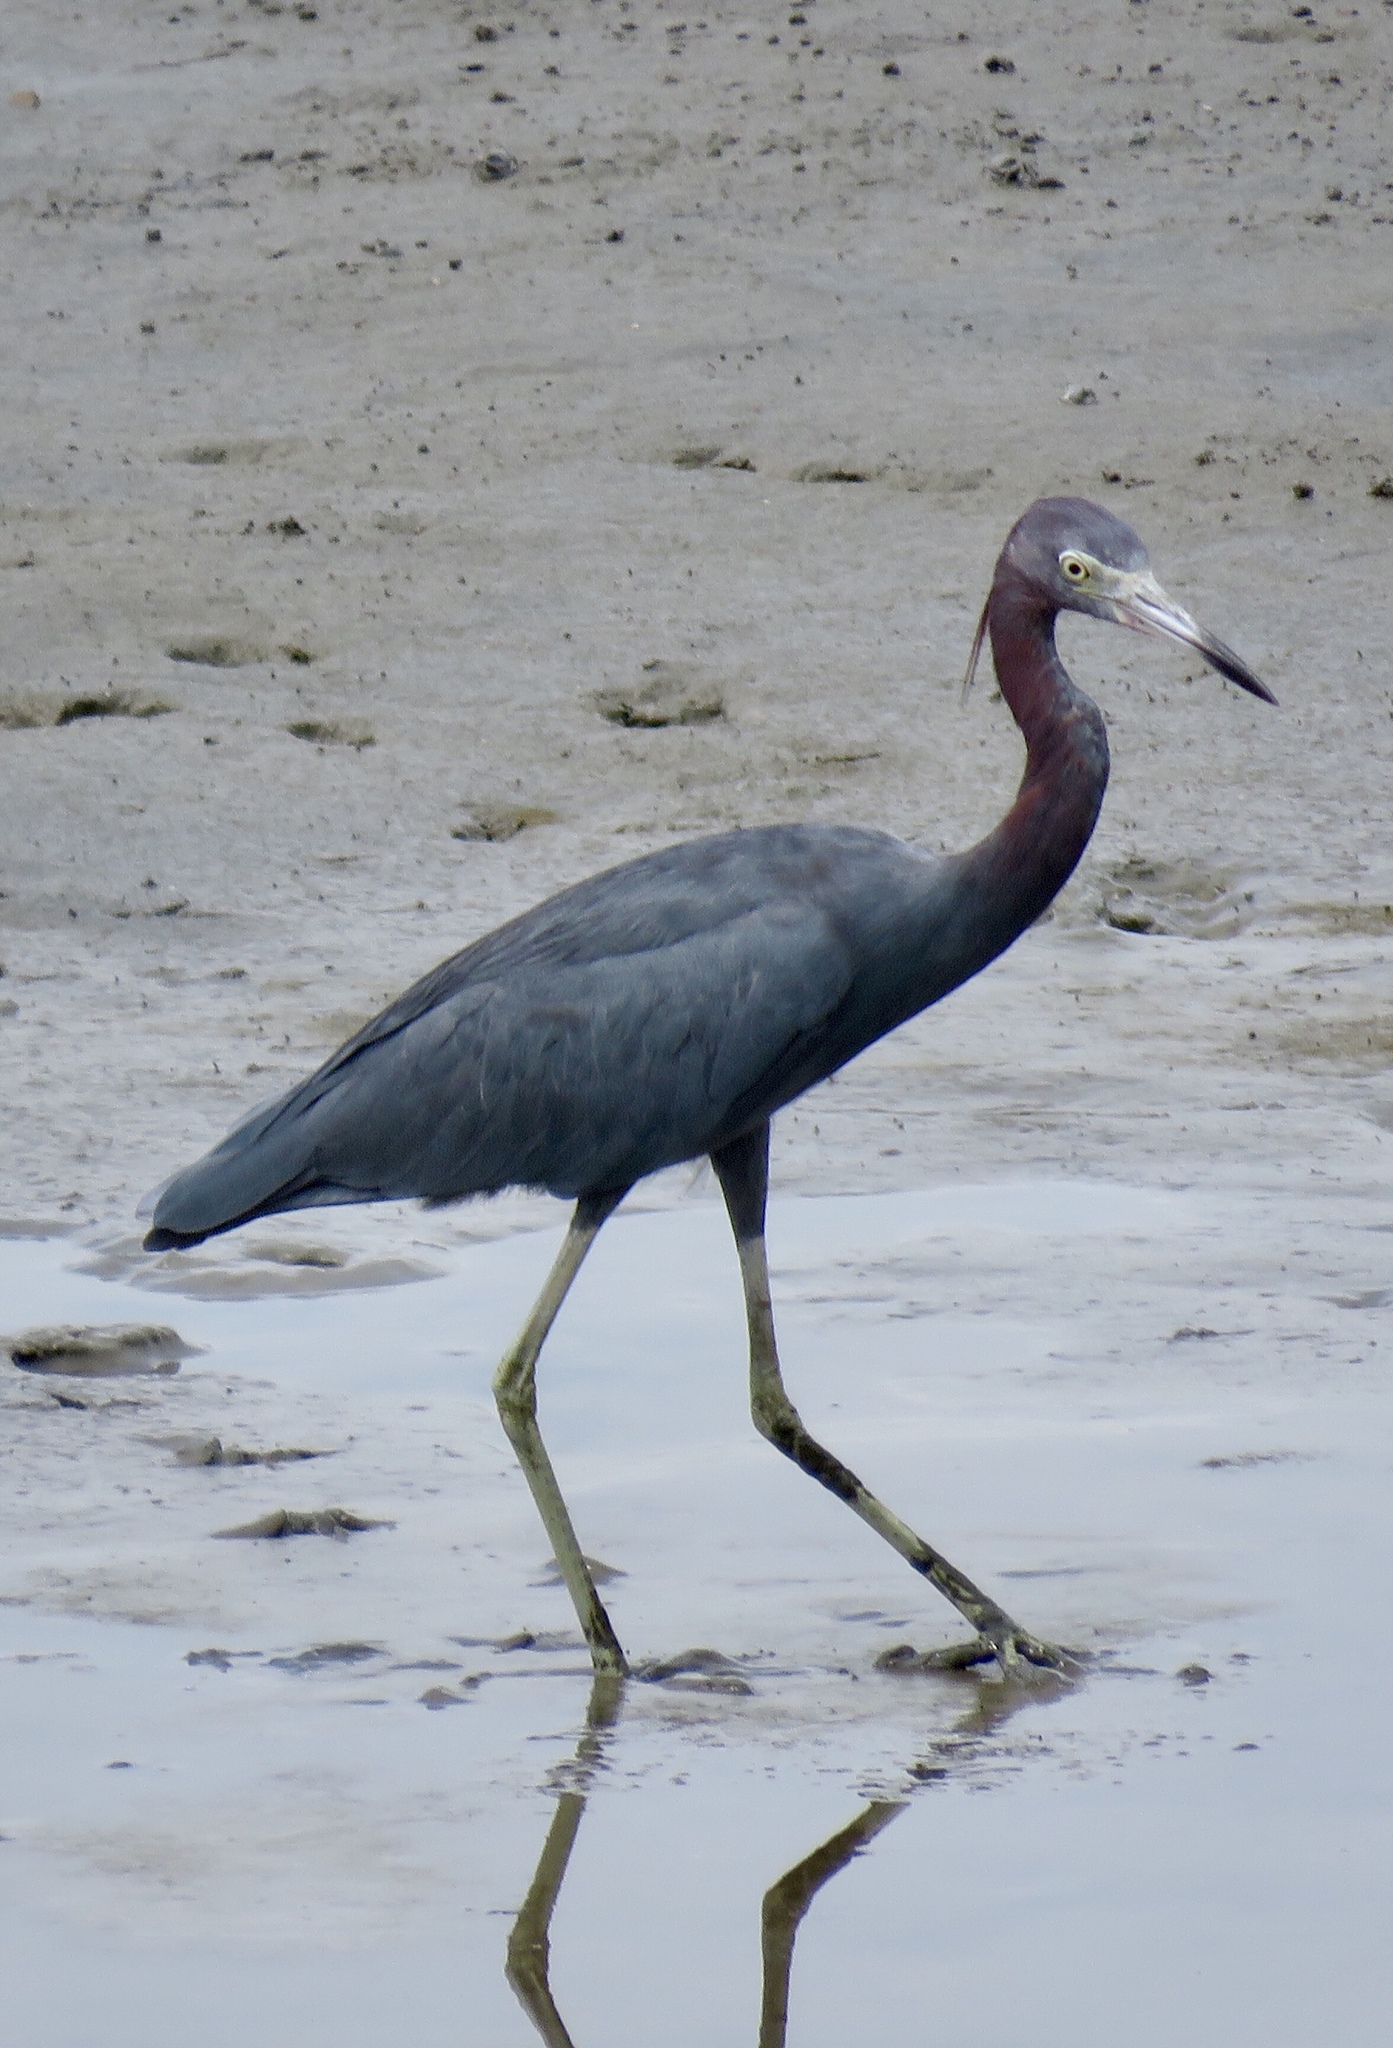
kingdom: Animalia
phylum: Chordata
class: Aves
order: Pelecaniformes
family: Ardeidae
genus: Egretta
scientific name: Egretta caerulea
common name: Little blue heron
